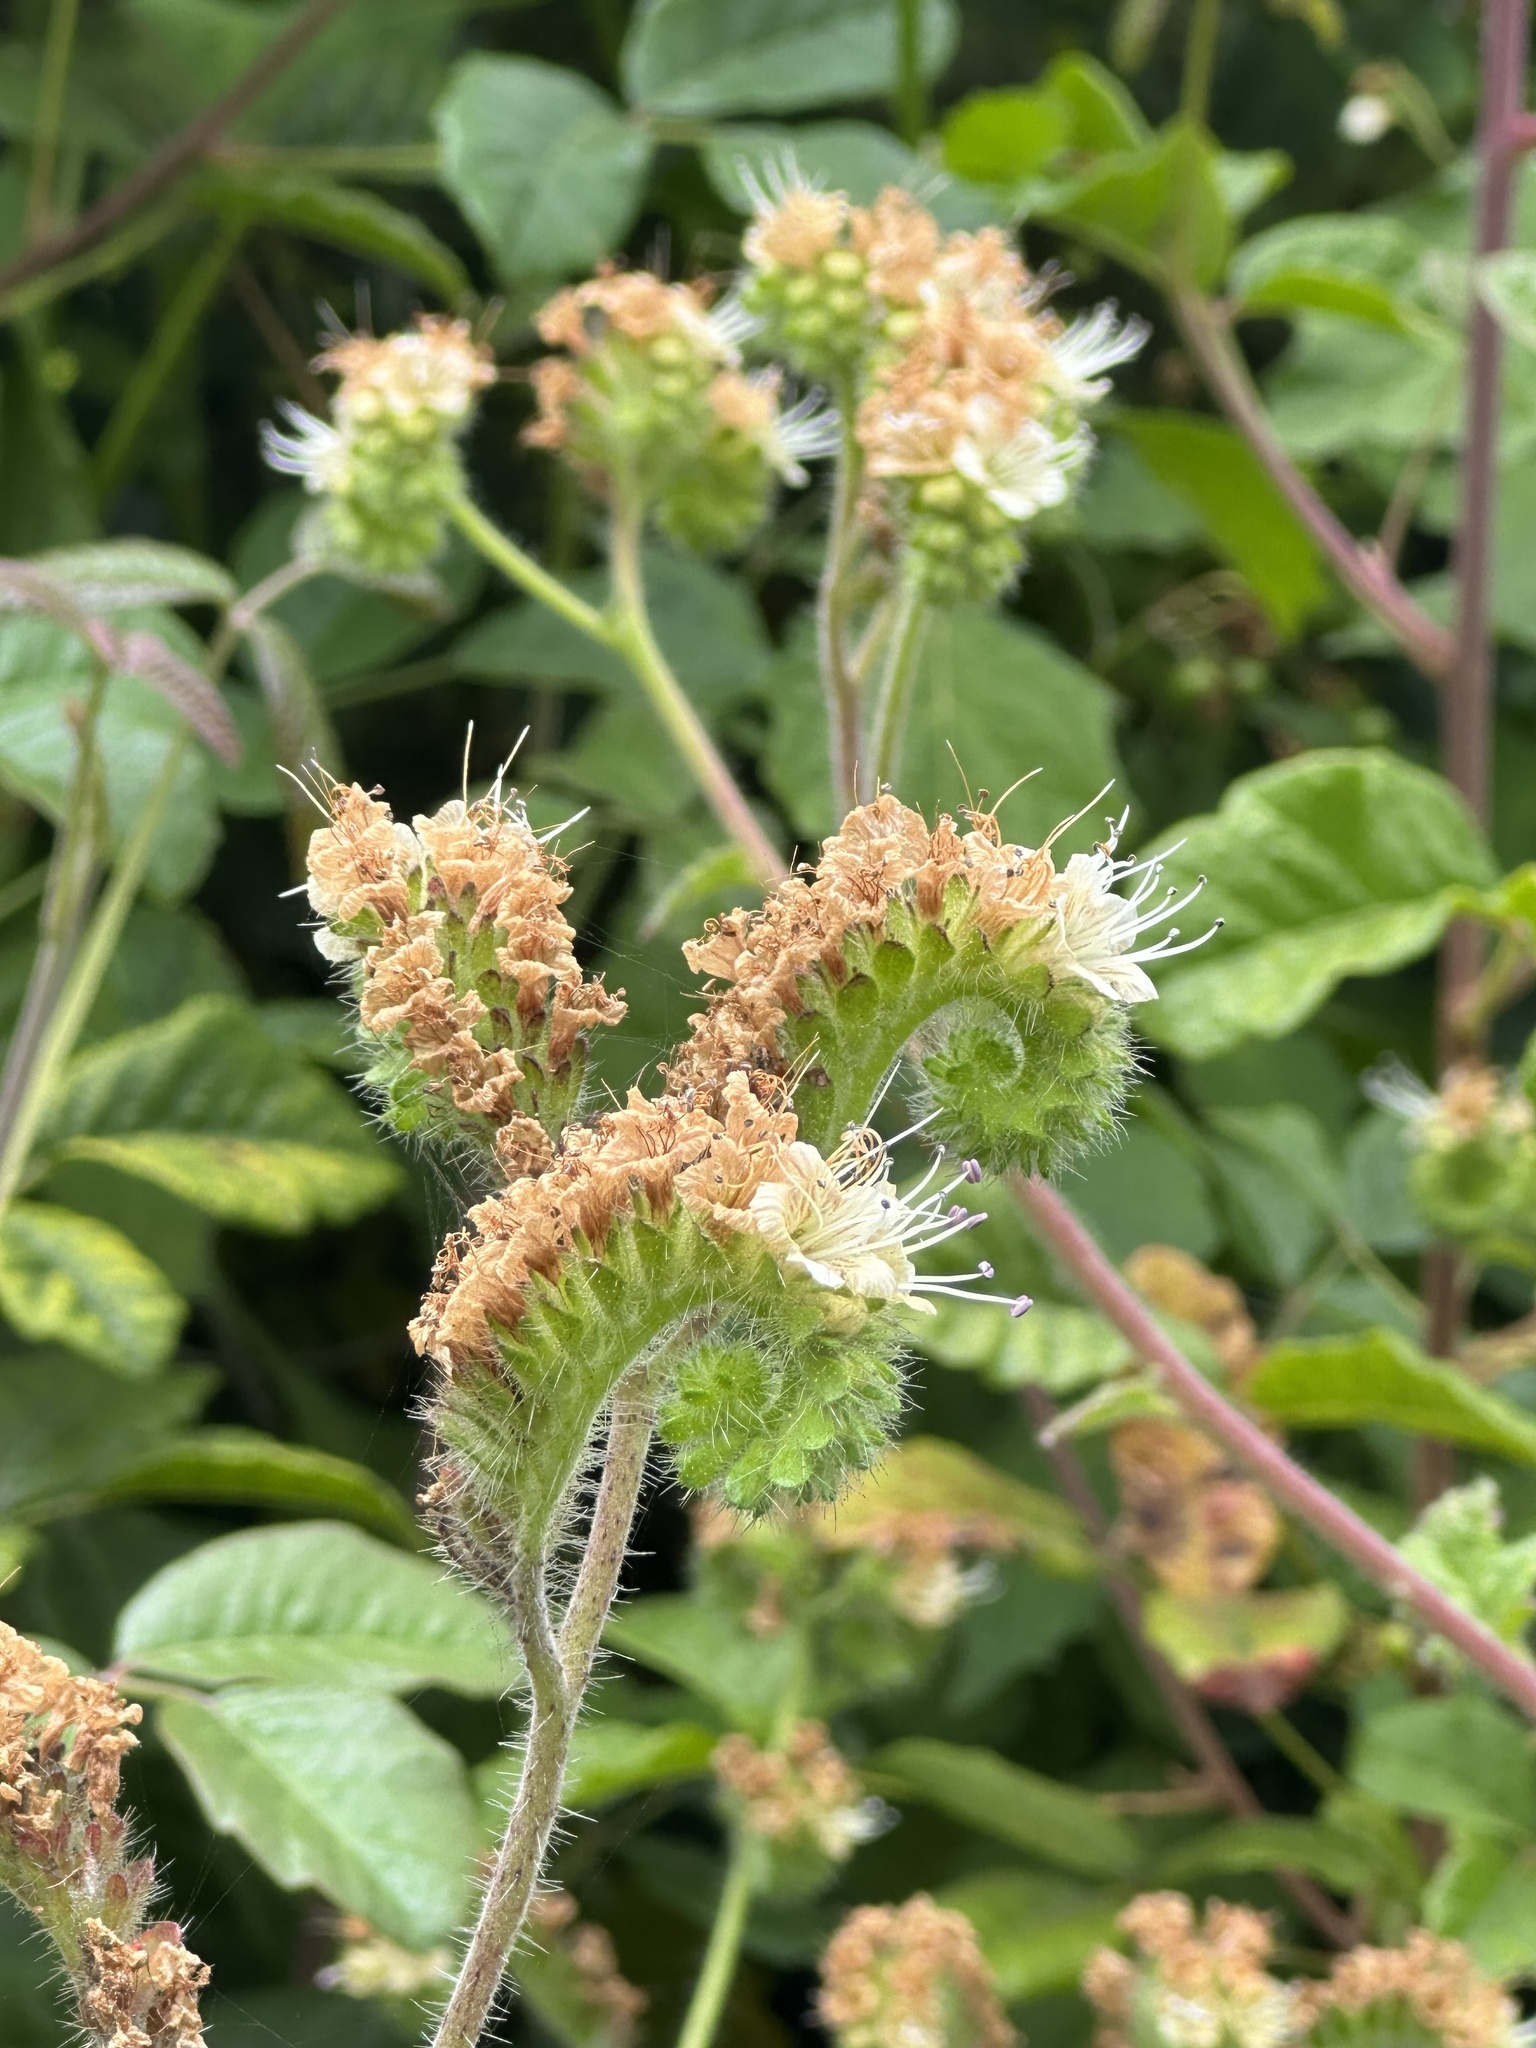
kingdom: Plantae
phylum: Tracheophyta
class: Magnoliopsida
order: Boraginales
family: Hydrophyllaceae
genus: Phacelia
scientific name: Phacelia malvifolia
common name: Mallow-leaf phacelia
